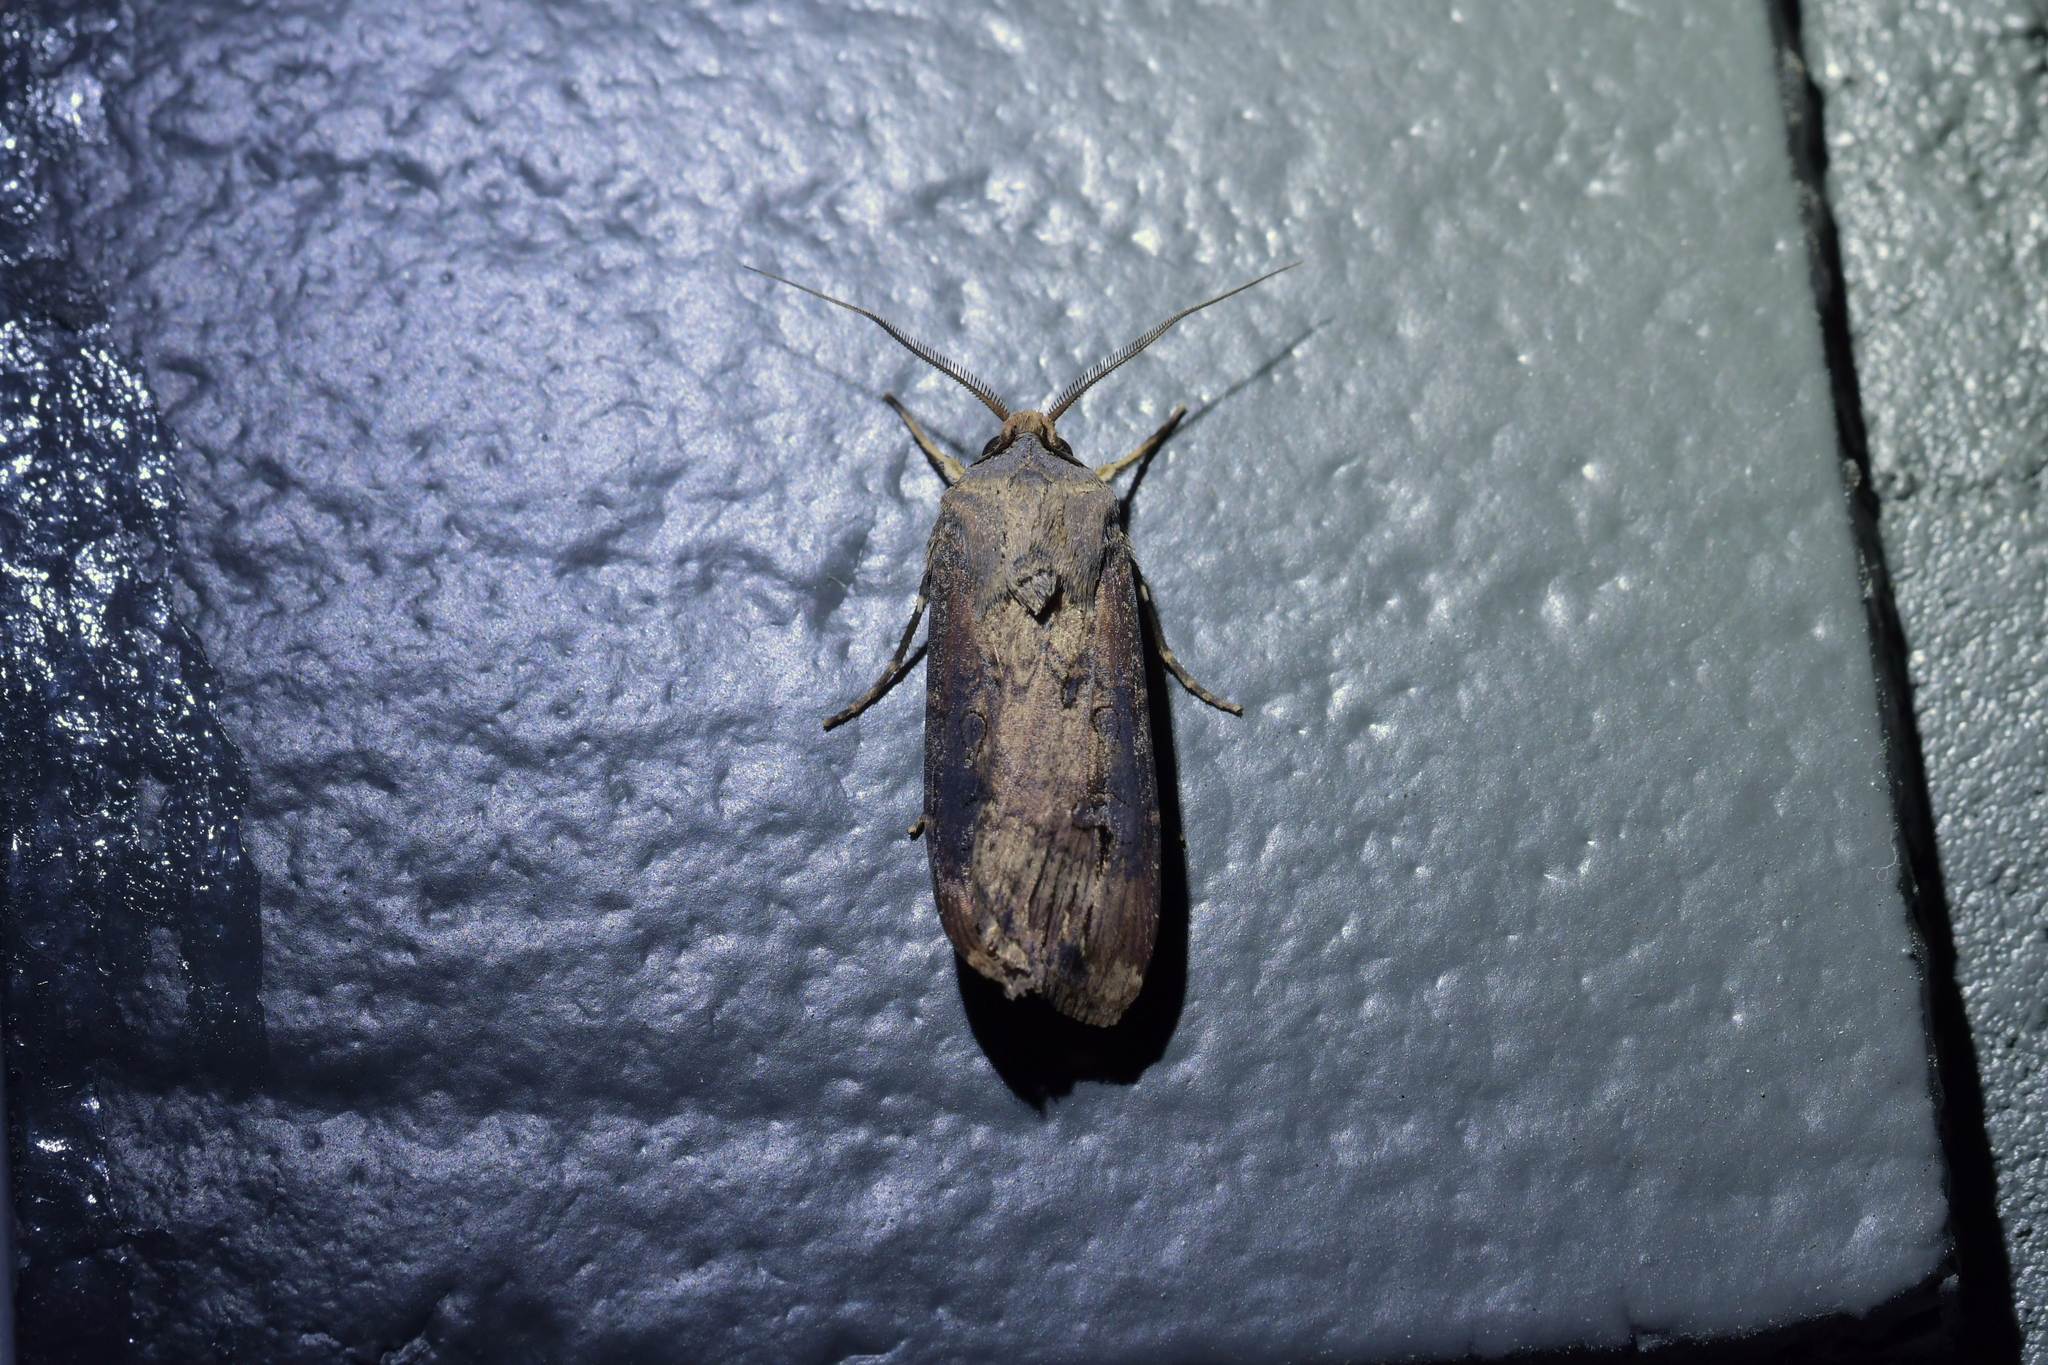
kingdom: Animalia
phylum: Arthropoda
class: Insecta
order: Lepidoptera
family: Noctuidae
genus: Agrotis
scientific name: Agrotis ipsilon
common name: Dark sword-grass
